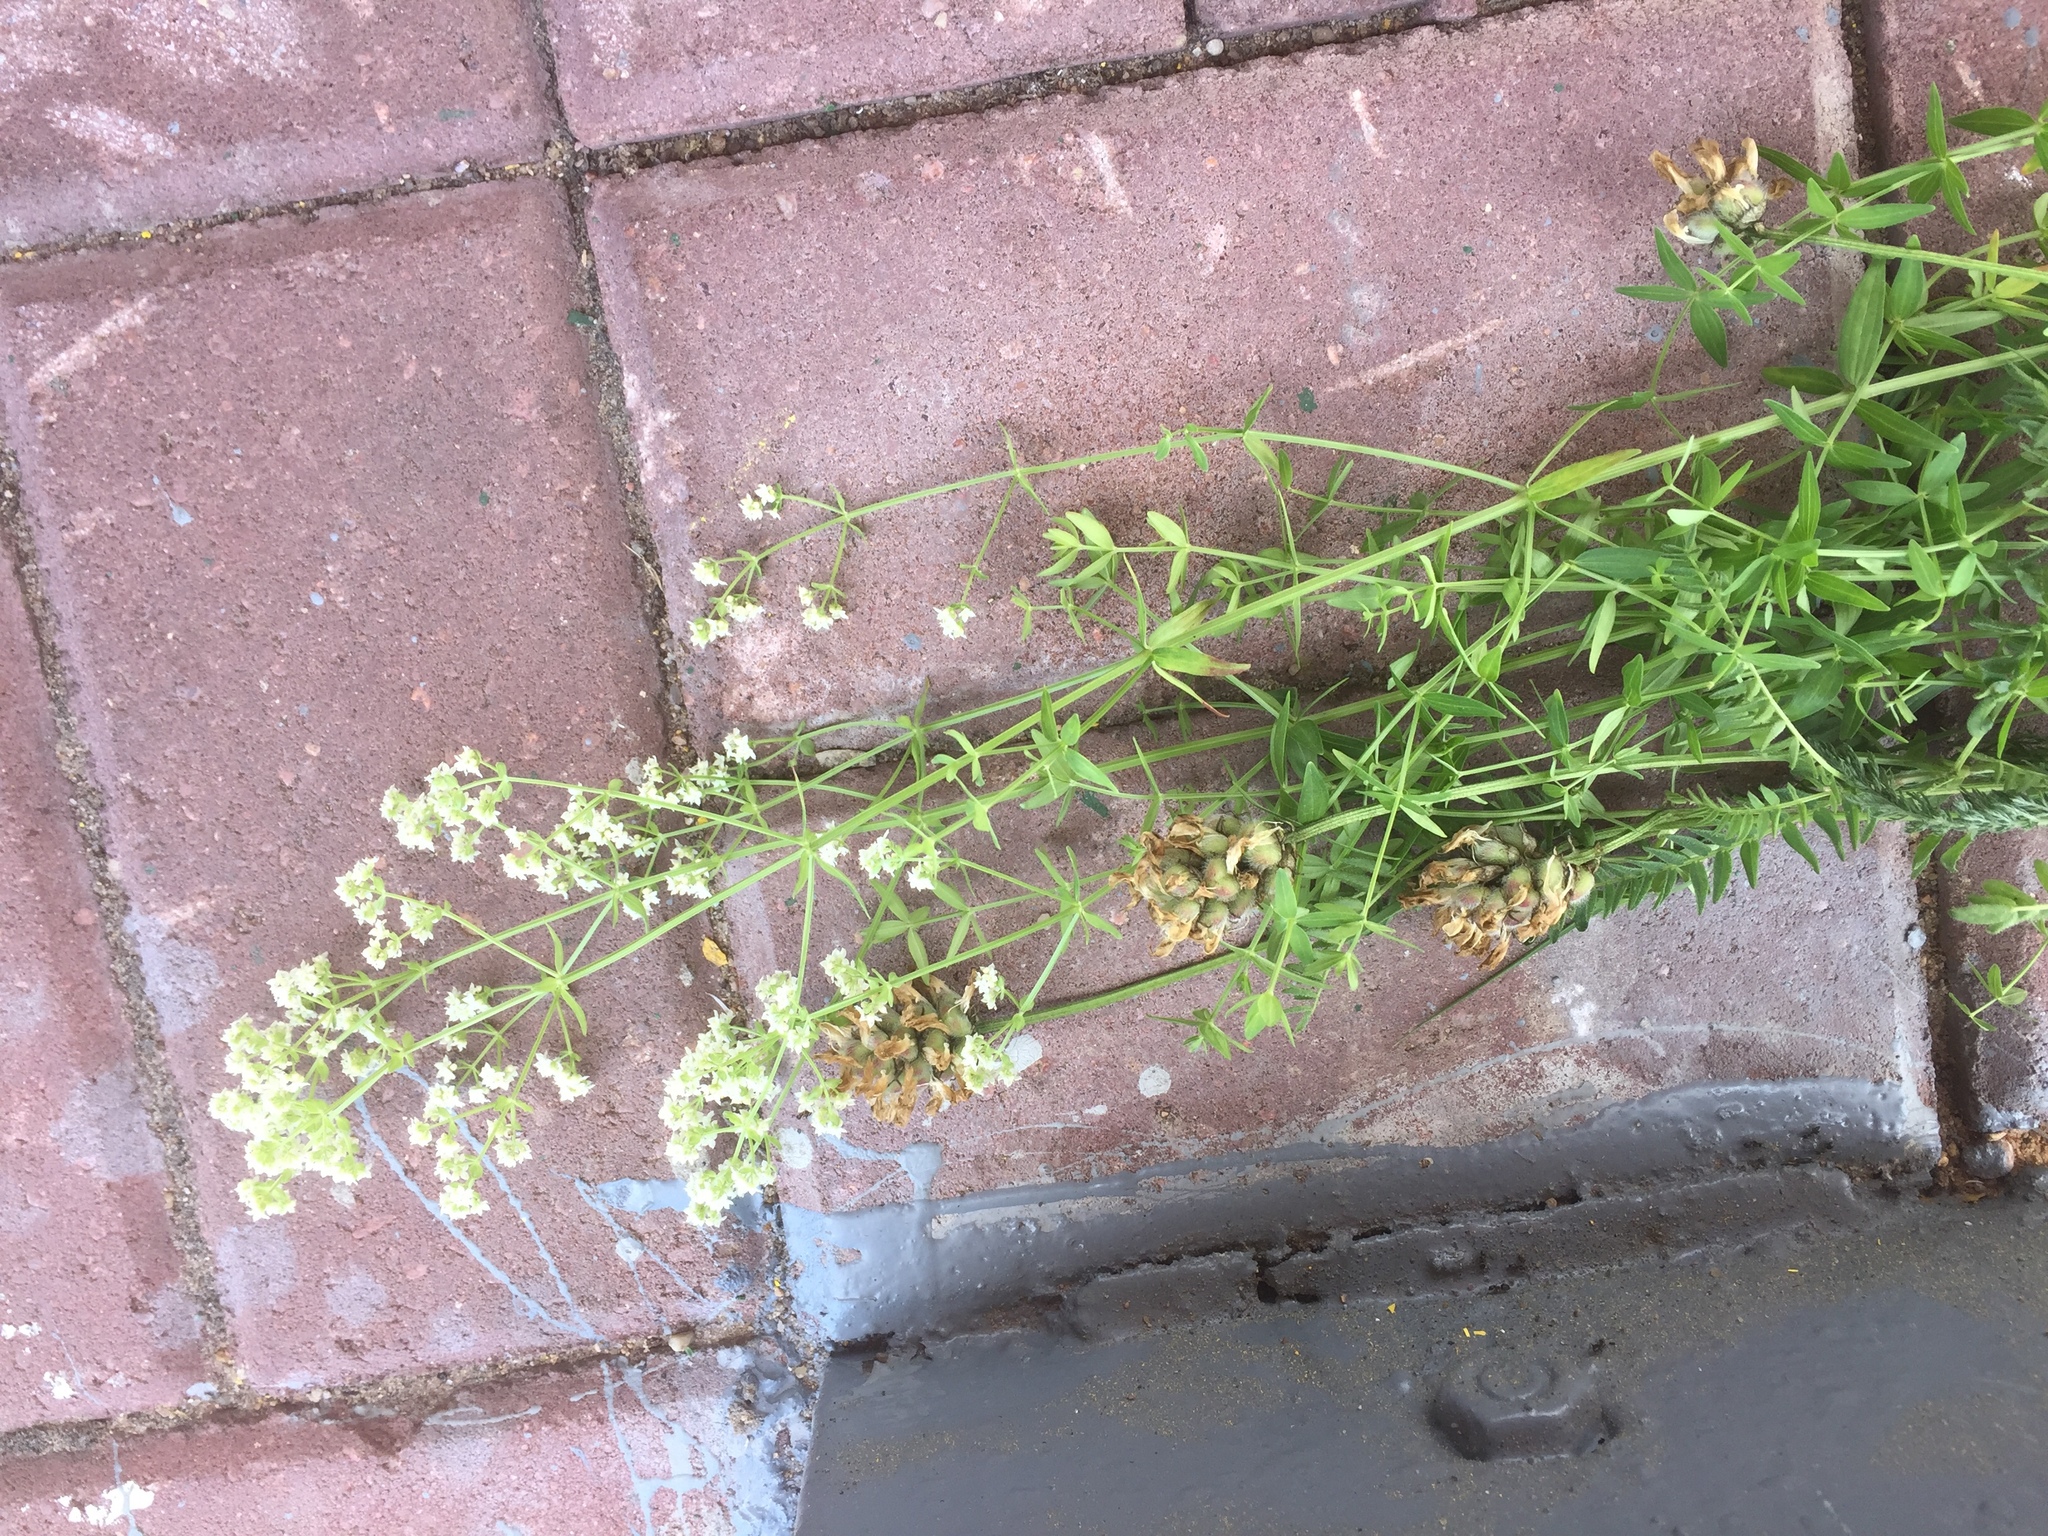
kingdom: Plantae
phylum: Tracheophyta
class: Magnoliopsida
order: Gentianales
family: Rubiaceae
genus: Galium
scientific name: Galium boreale
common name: Northern bedstraw
